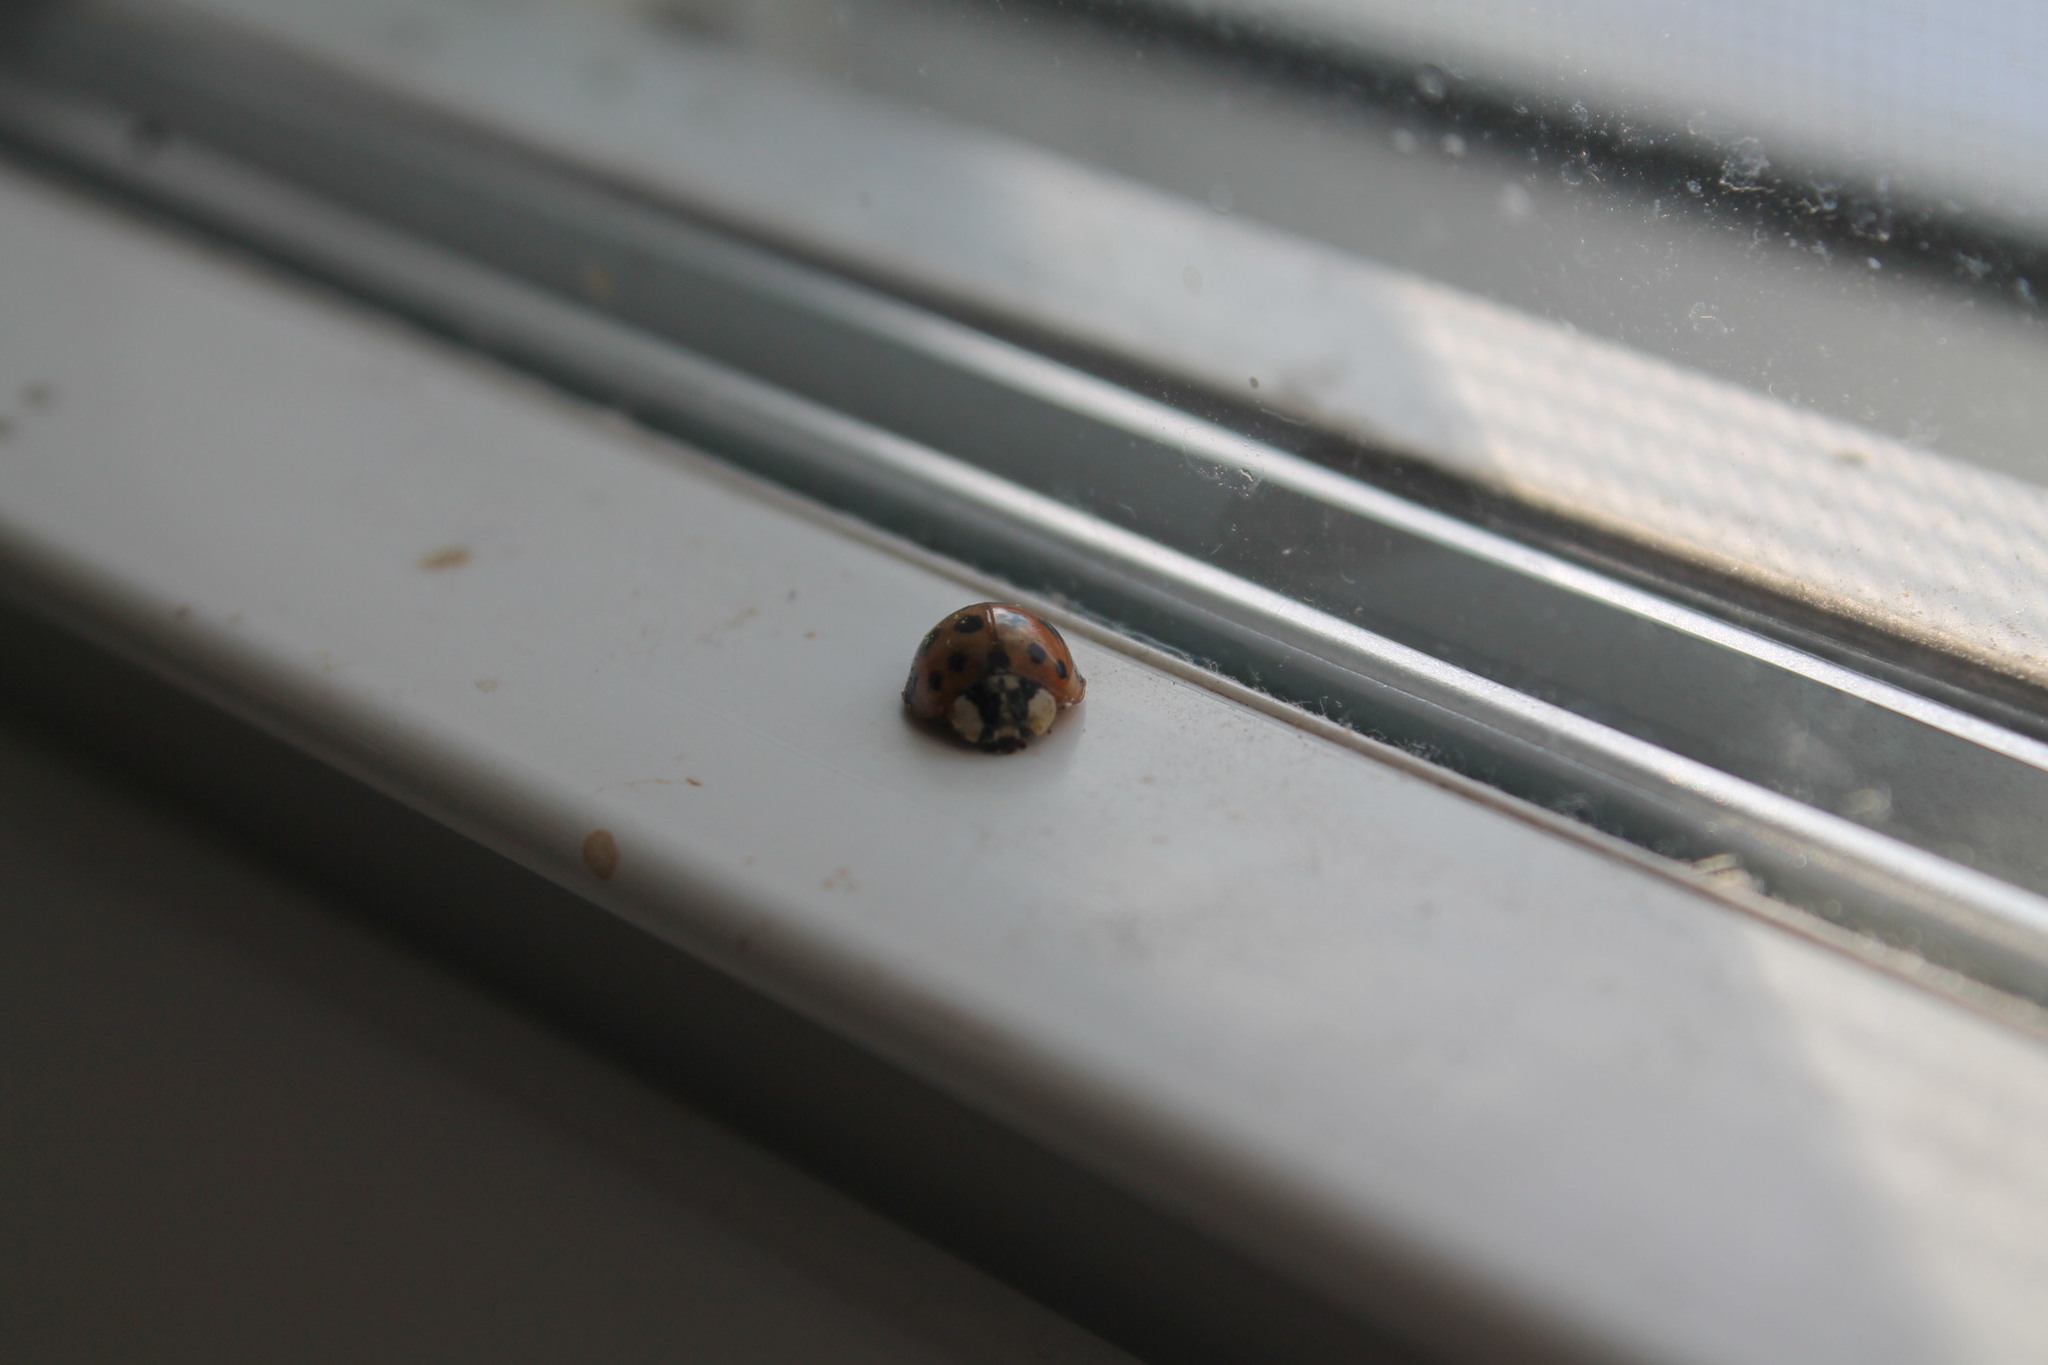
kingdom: Animalia
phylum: Arthropoda
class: Insecta
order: Coleoptera
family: Coccinellidae
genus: Harmonia
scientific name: Harmonia axyridis
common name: Harlequin ladybird
